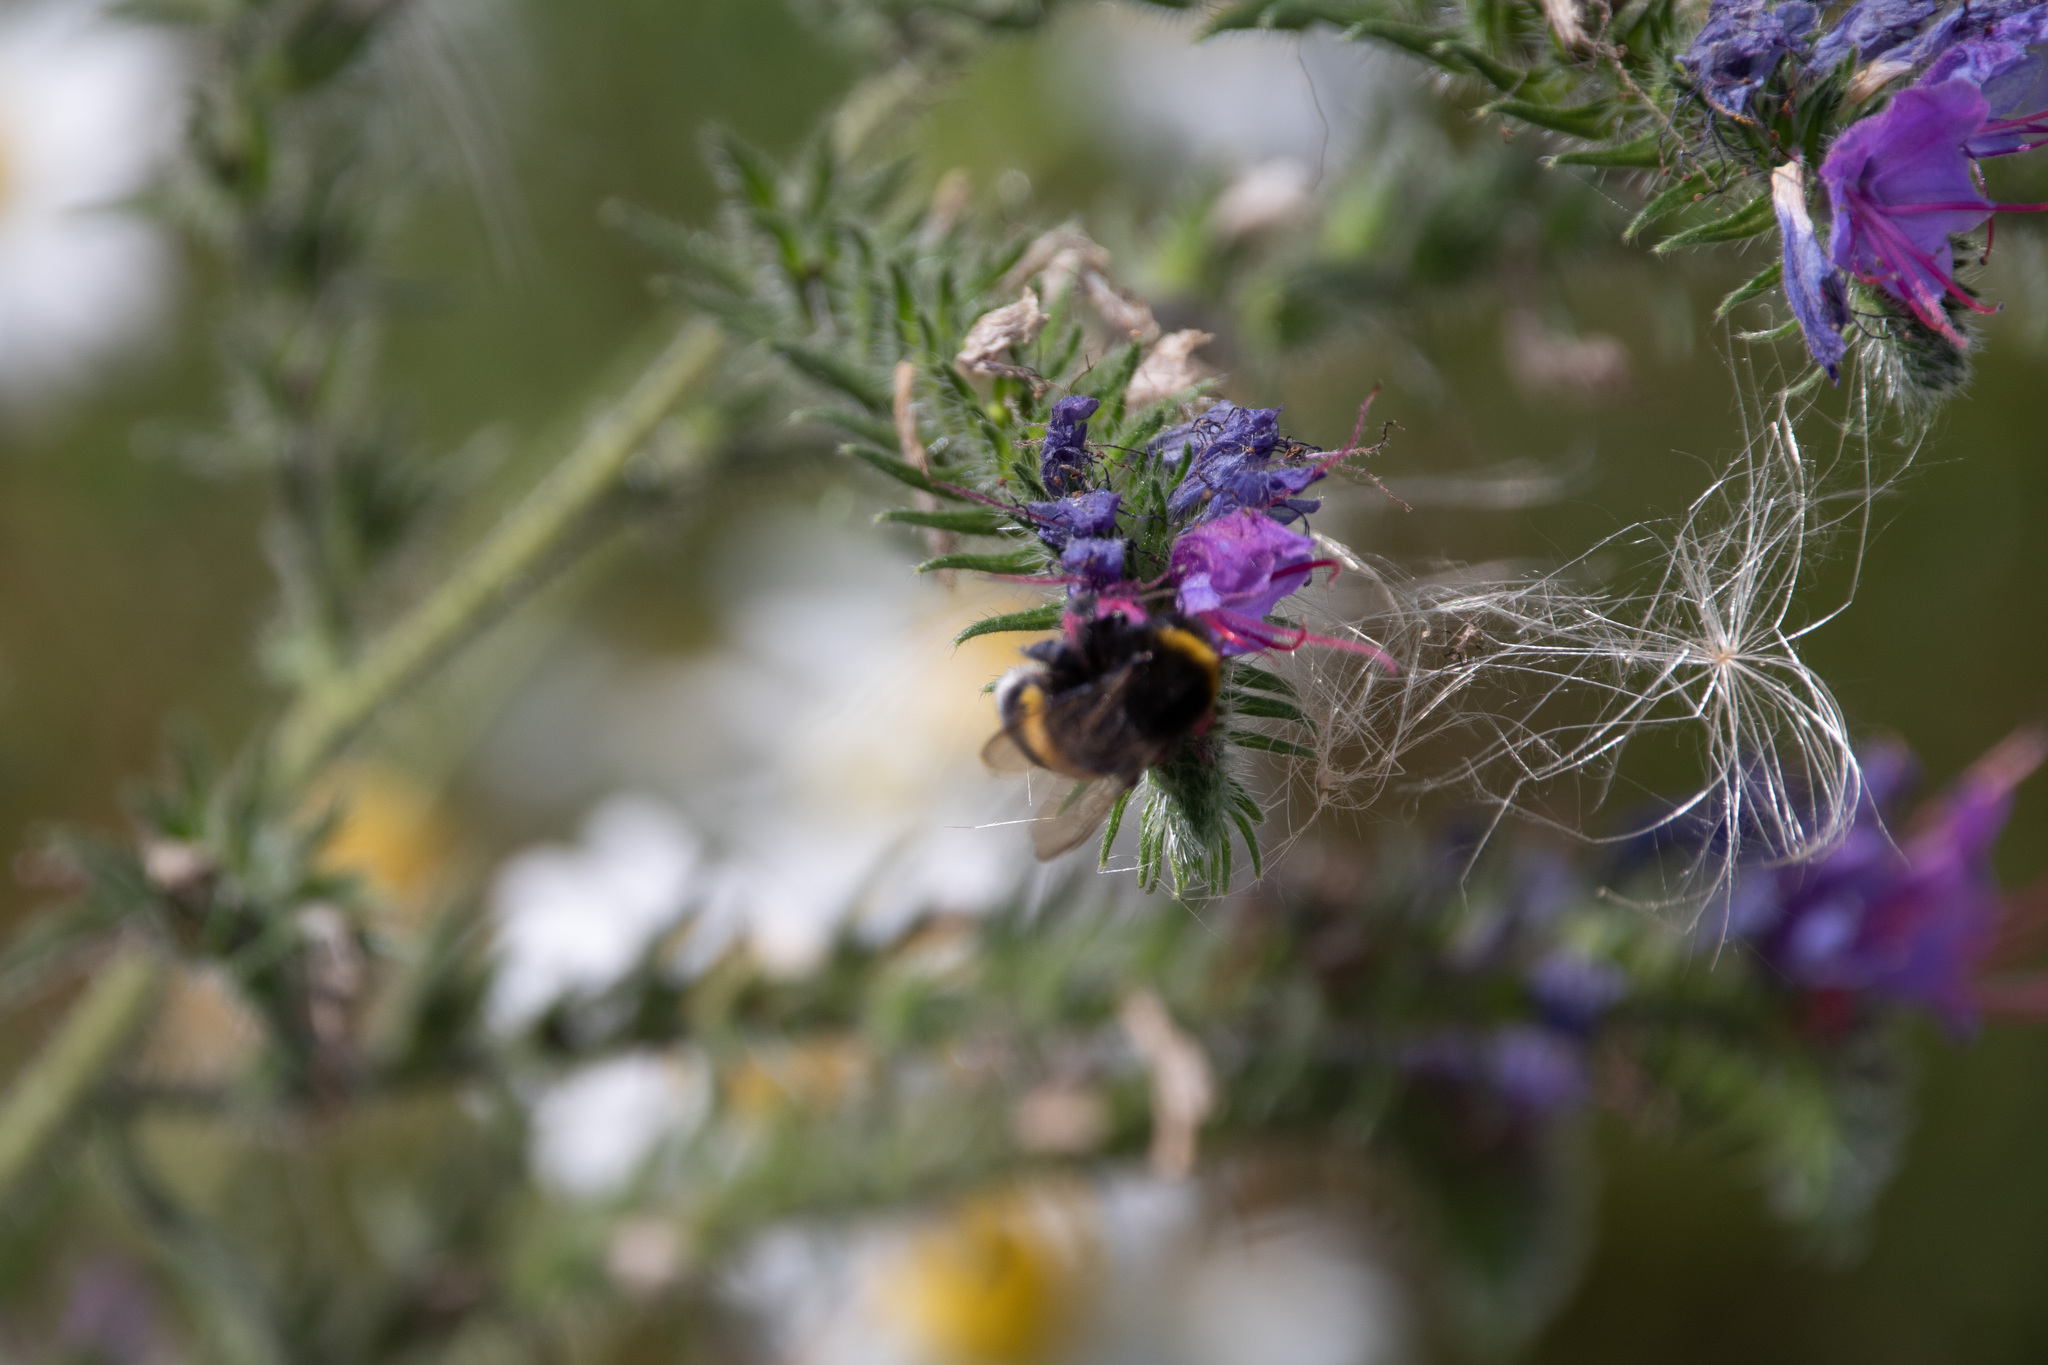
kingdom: Animalia
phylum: Arthropoda
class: Insecta
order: Hymenoptera
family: Apidae
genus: Bombus
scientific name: Bombus
